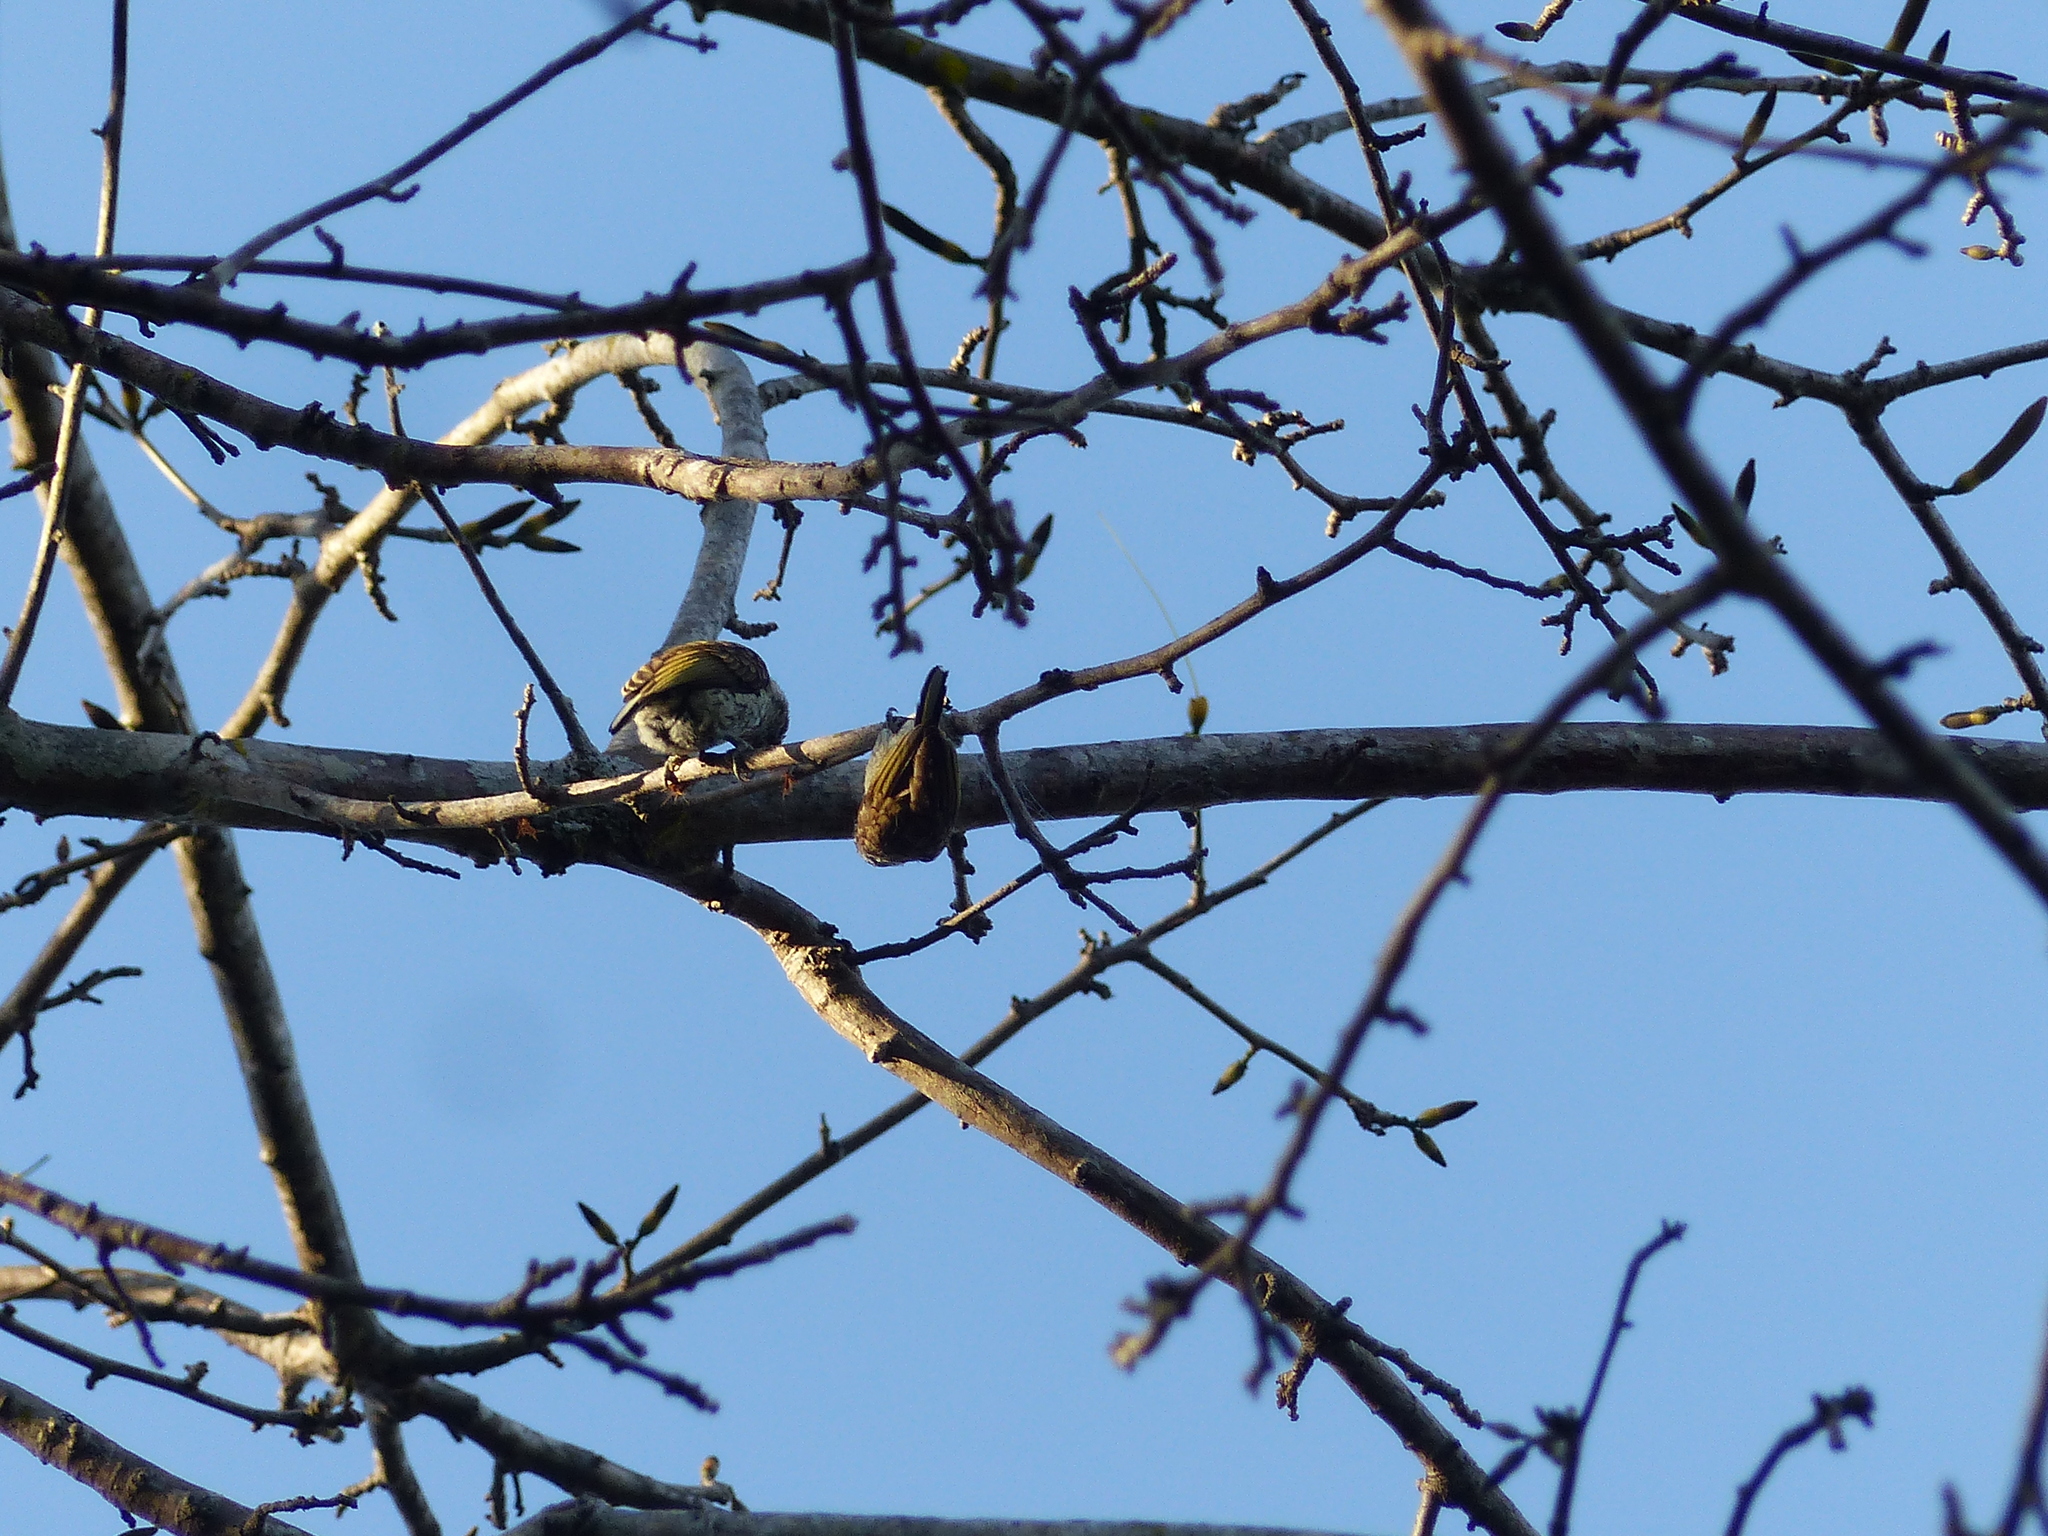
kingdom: Animalia
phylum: Chordata
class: Aves
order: Piciformes
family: Picidae
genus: Picumnus
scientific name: Picumnus squamulatus
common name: Scaled piculet
